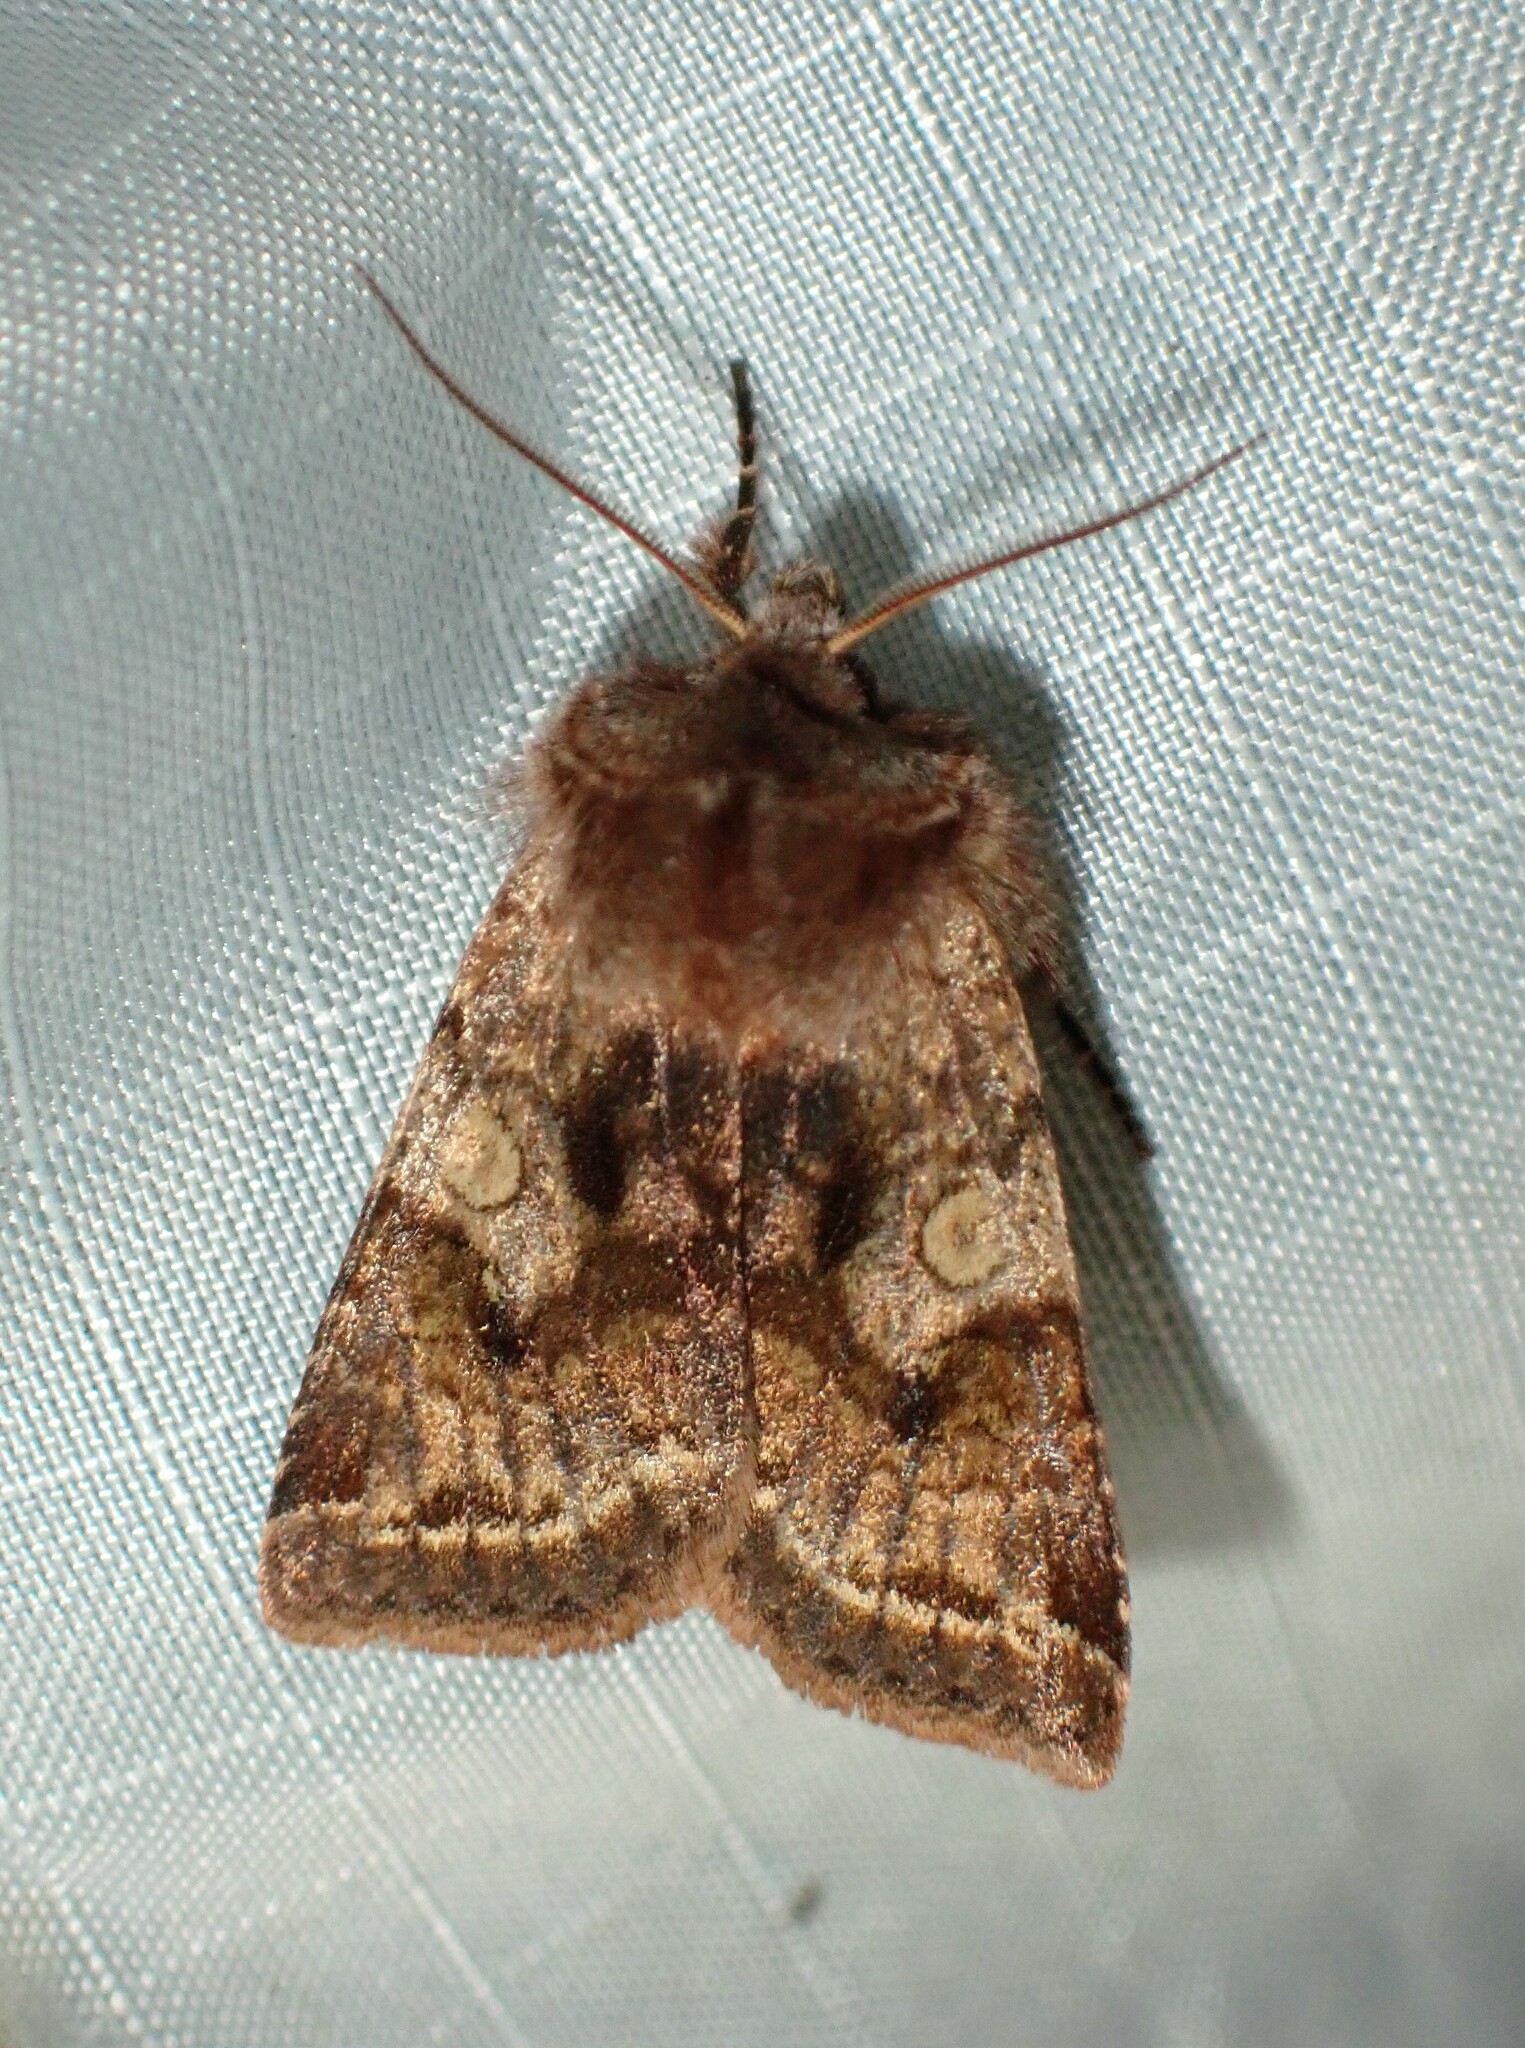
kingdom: Animalia
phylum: Arthropoda
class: Insecta
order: Lepidoptera
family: Noctuidae
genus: Cerastis
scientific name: Cerastis salicarum
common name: Willow dart
